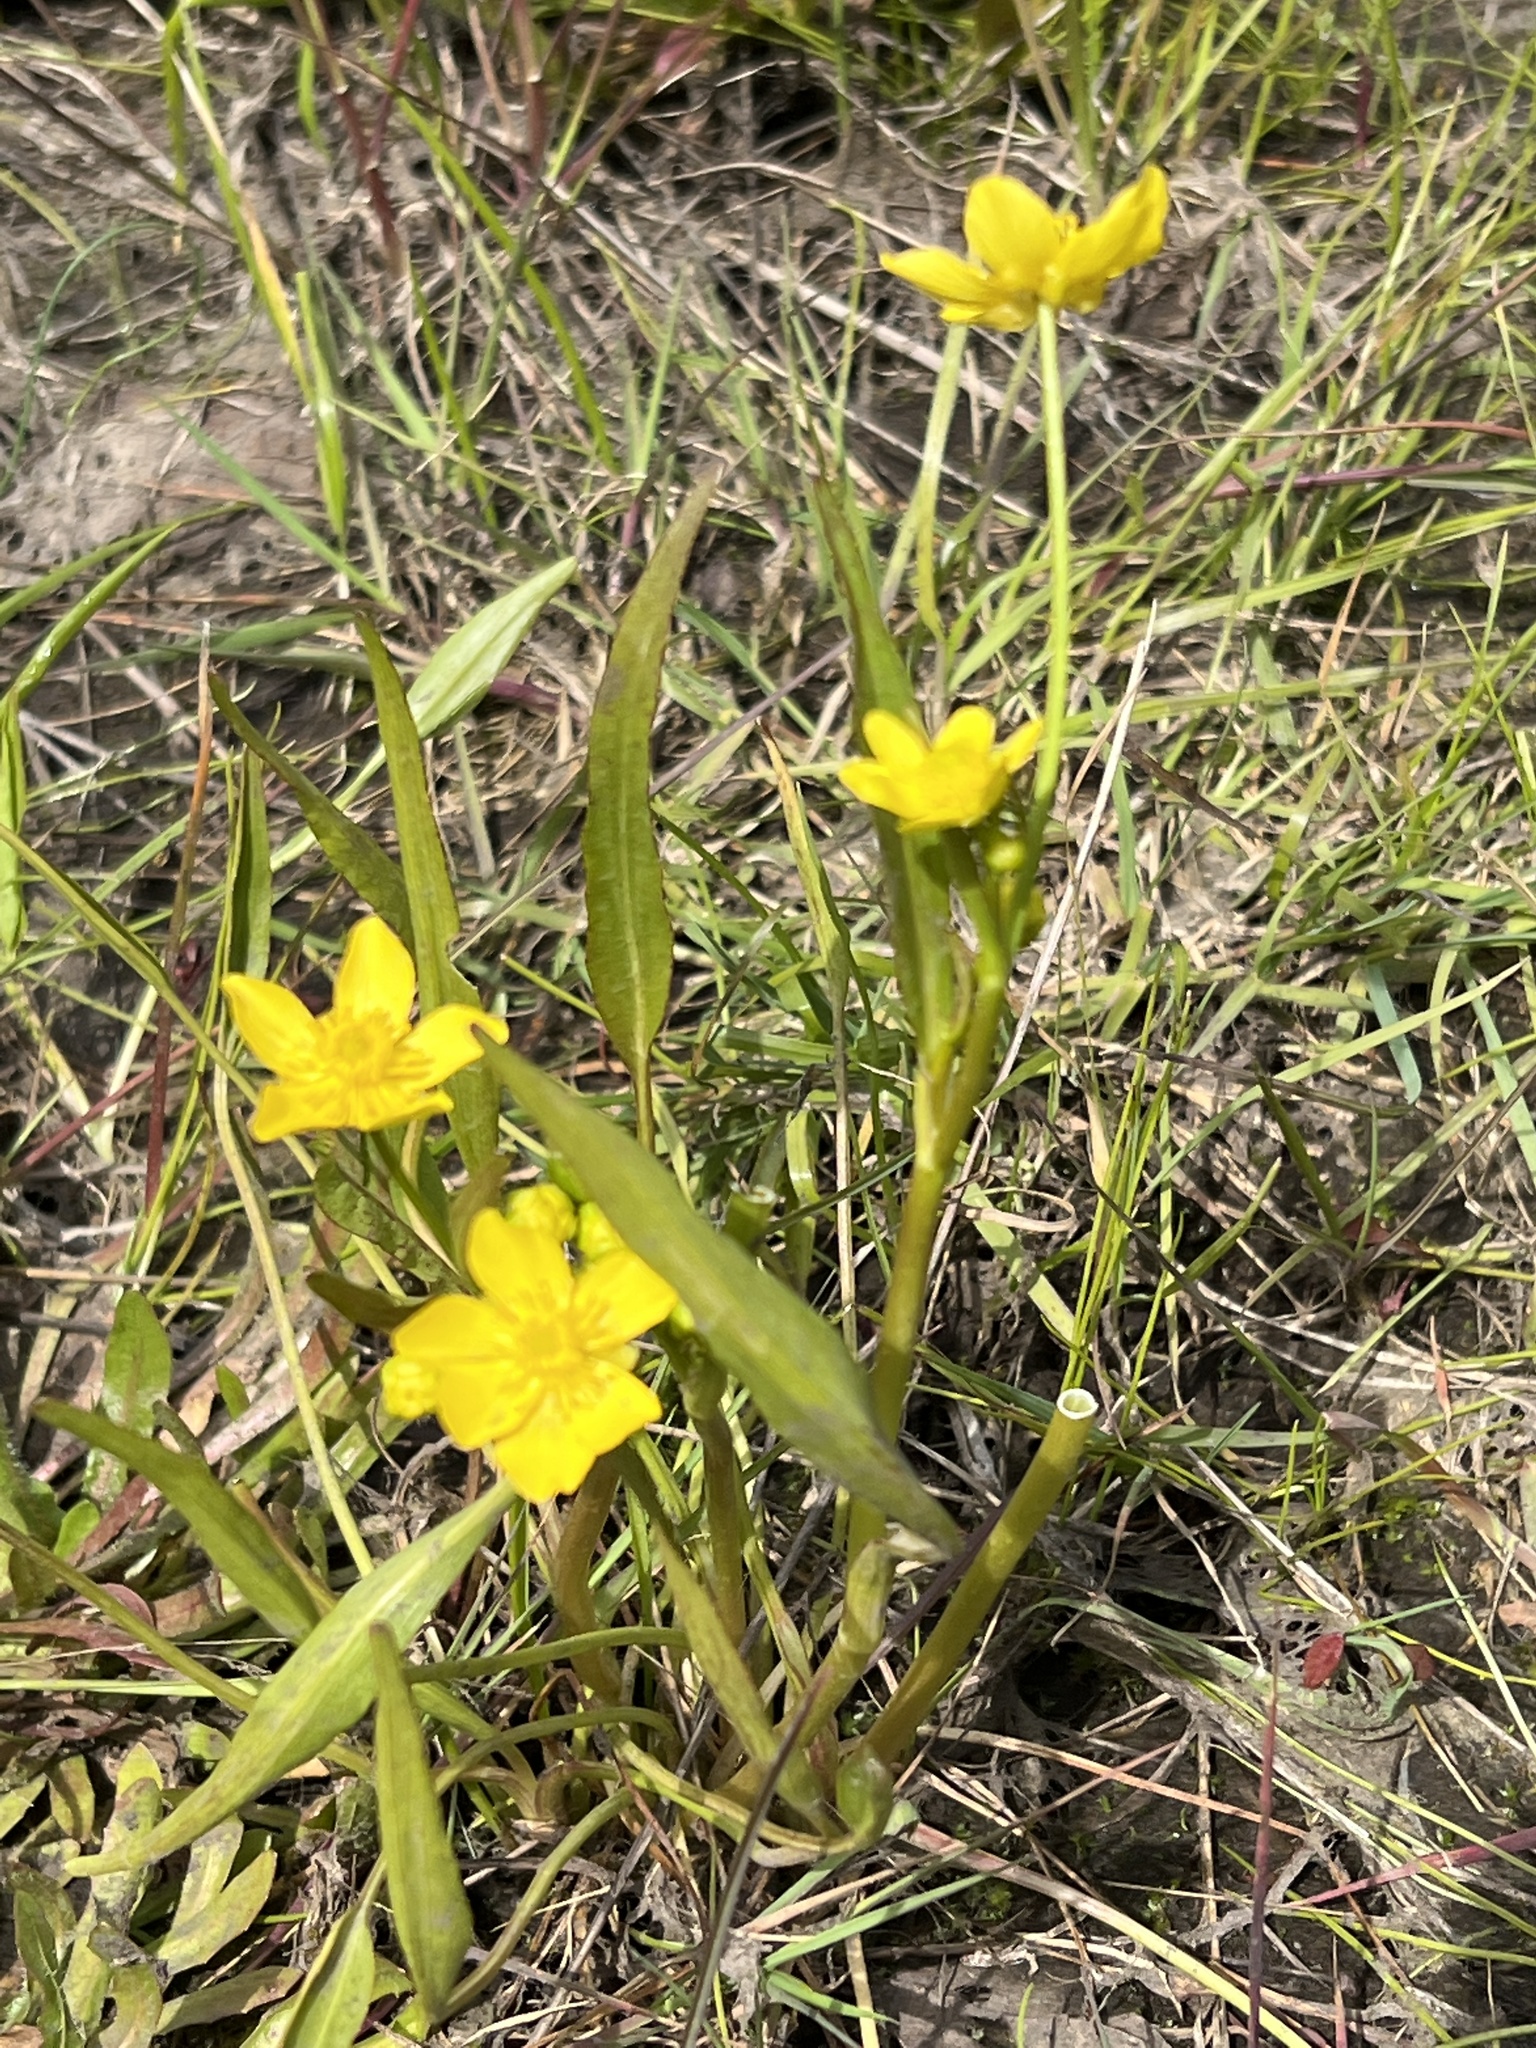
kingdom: Plantae
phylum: Tracheophyta
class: Magnoliopsida
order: Ranunculales
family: Ranunculaceae
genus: Ranunculus
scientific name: Ranunculus alismifolius
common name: Plantain-leaved buttercup
